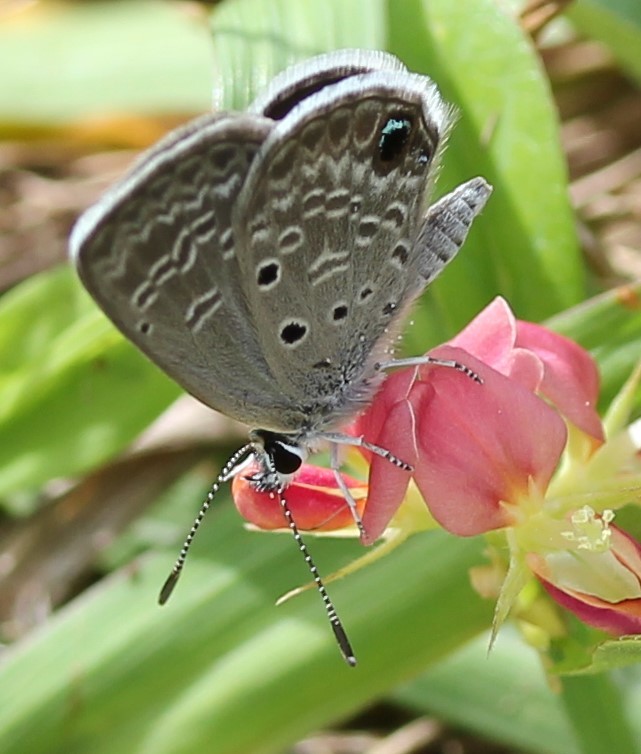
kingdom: Animalia
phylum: Arthropoda
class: Insecta
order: Lepidoptera
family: Lycaenidae
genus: Hemiargus
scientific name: Hemiargus ceraunus
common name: Ceraunus blue
